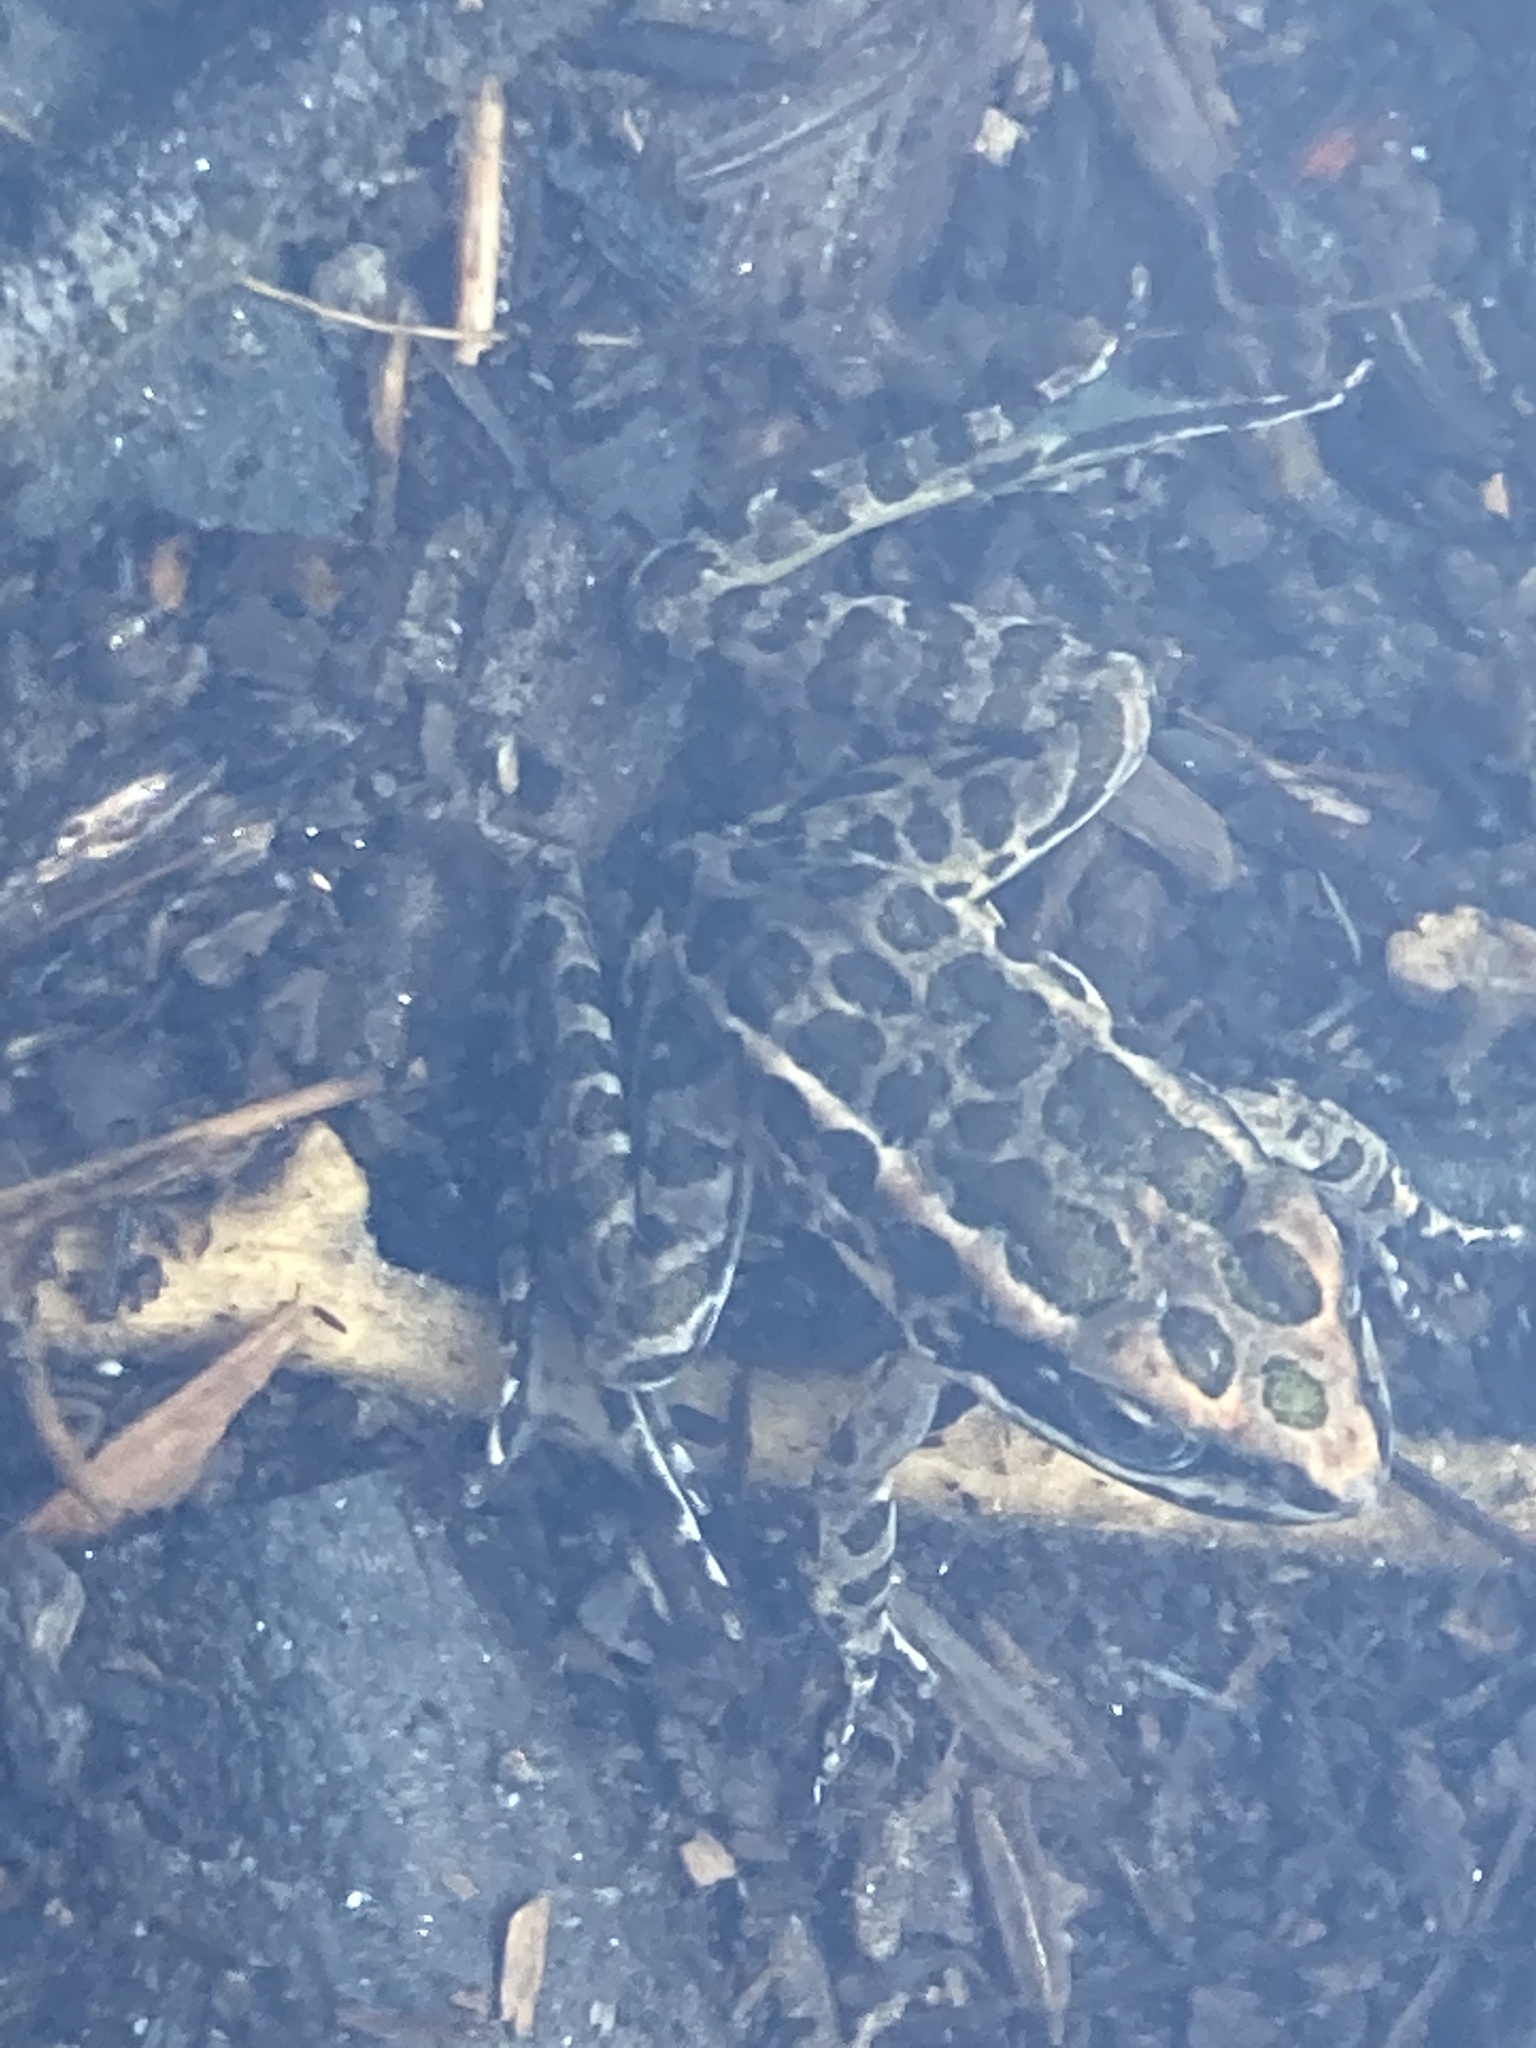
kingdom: Animalia
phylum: Chordata
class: Amphibia
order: Anura
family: Ranidae
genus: Lithobates
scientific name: Lithobates palustris
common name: Pickerel frog
